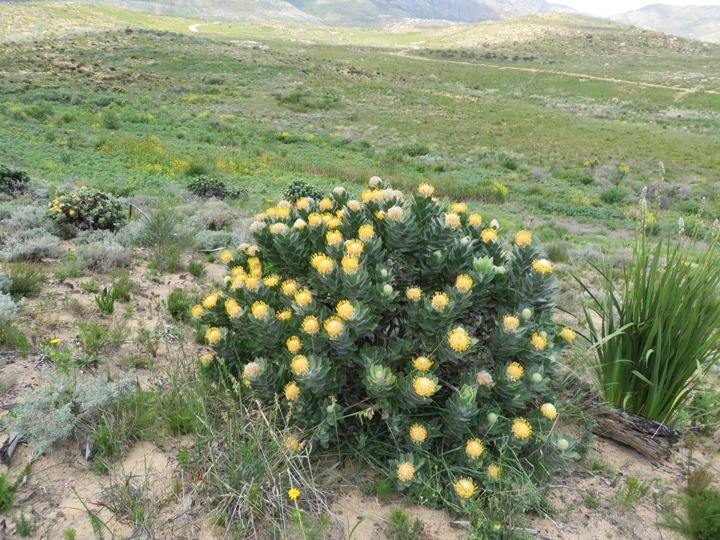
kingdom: Plantae
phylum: Tracheophyta
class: Magnoliopsida
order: Proteales
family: Proteaceae
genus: Leucospermum
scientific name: Leucospermum conocarpodendron
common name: Tree pincushion
